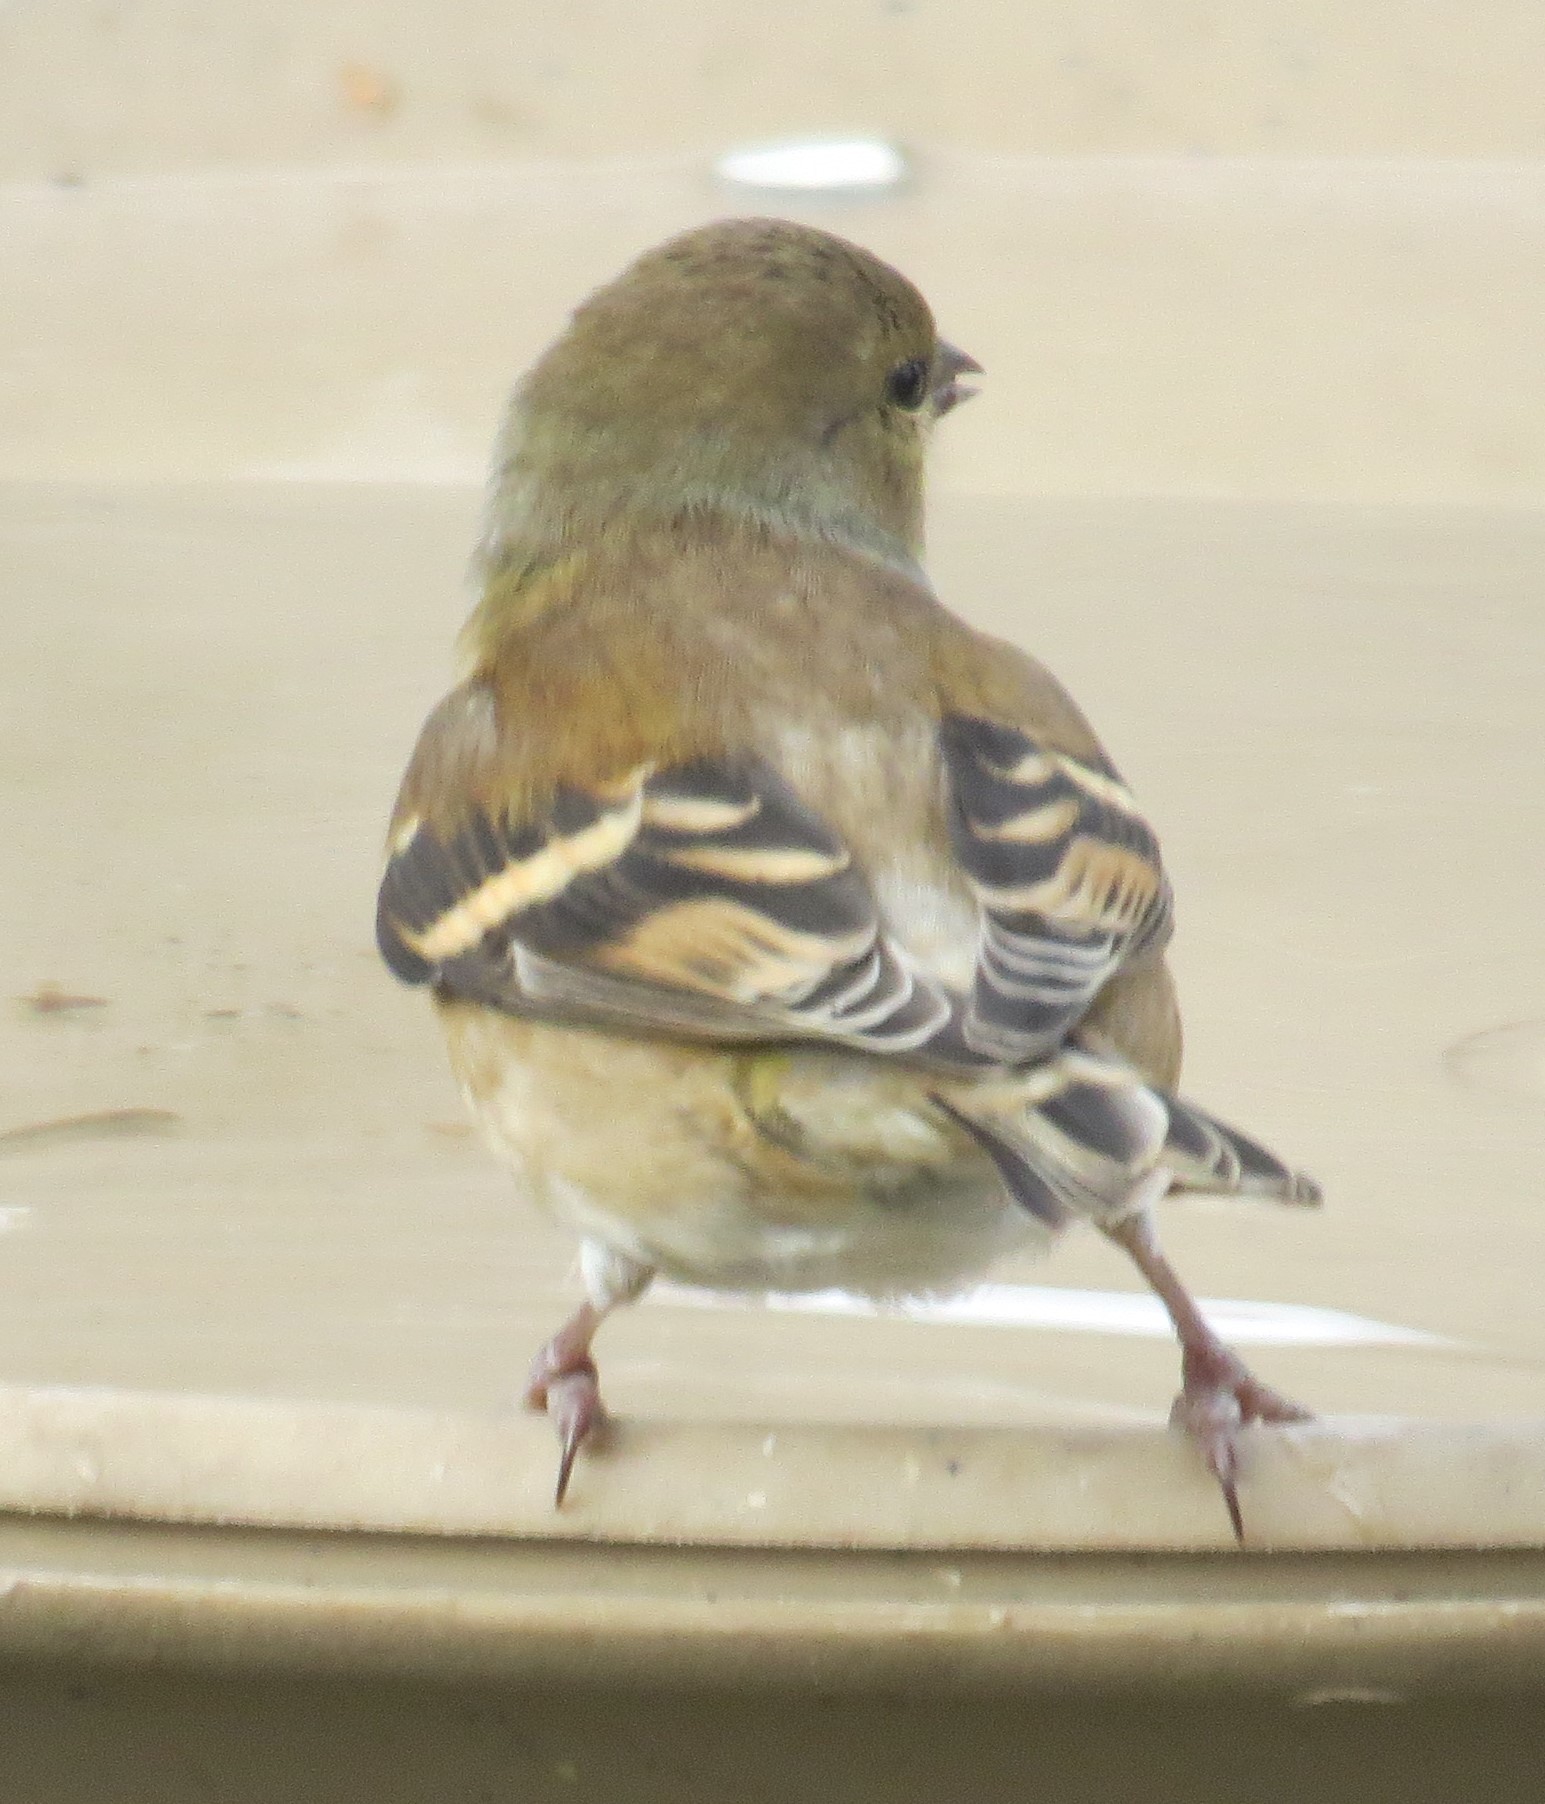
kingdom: Animalia
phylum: Chordata
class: Aves
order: Passeriformes
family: Fringillidae
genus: Spinus
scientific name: Spinus tristis
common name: American goldfinch
